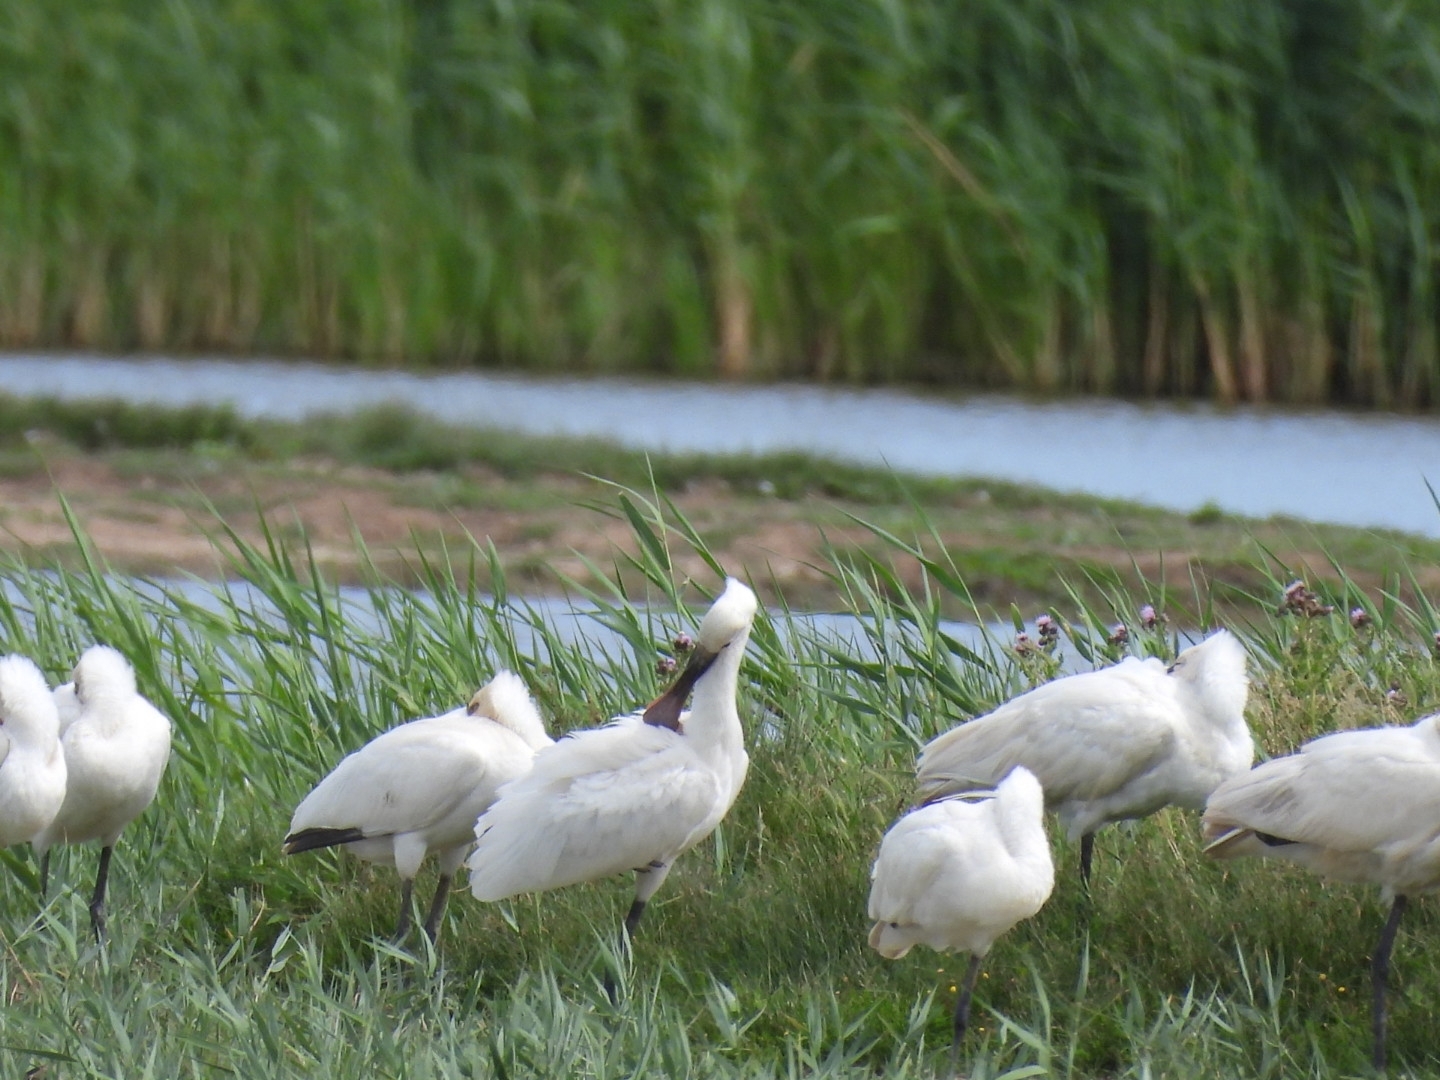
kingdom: Animalia
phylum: Chordata
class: Aves
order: Pelecaniformes
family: Threskiornithidae
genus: Platalea
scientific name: Platalea leucorodia
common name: Eurasian spoonbill
